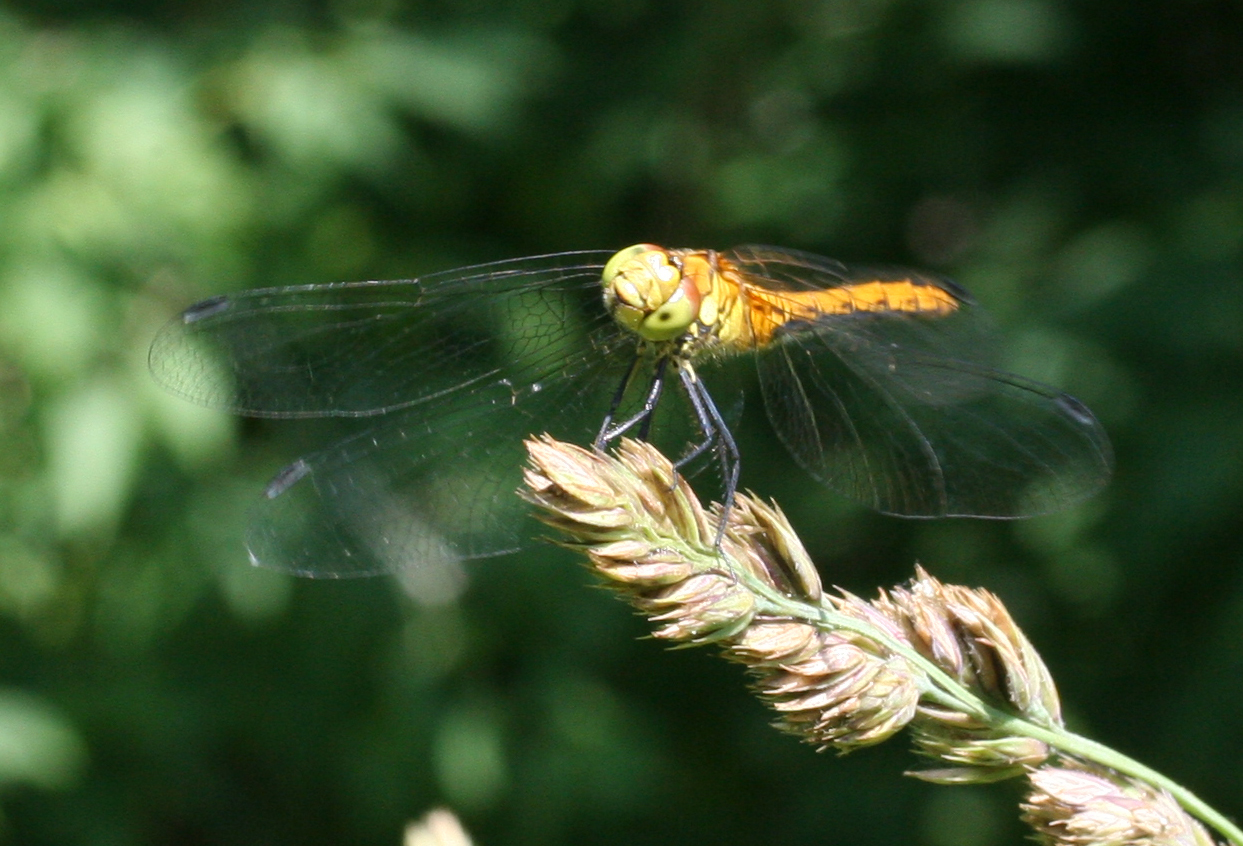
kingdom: Animalia
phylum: Arthropoda
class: Insecta
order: Odonata
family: Libellulidae
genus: Sympetrum
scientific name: Sympetrum sanguineum
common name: Ruddy darter
